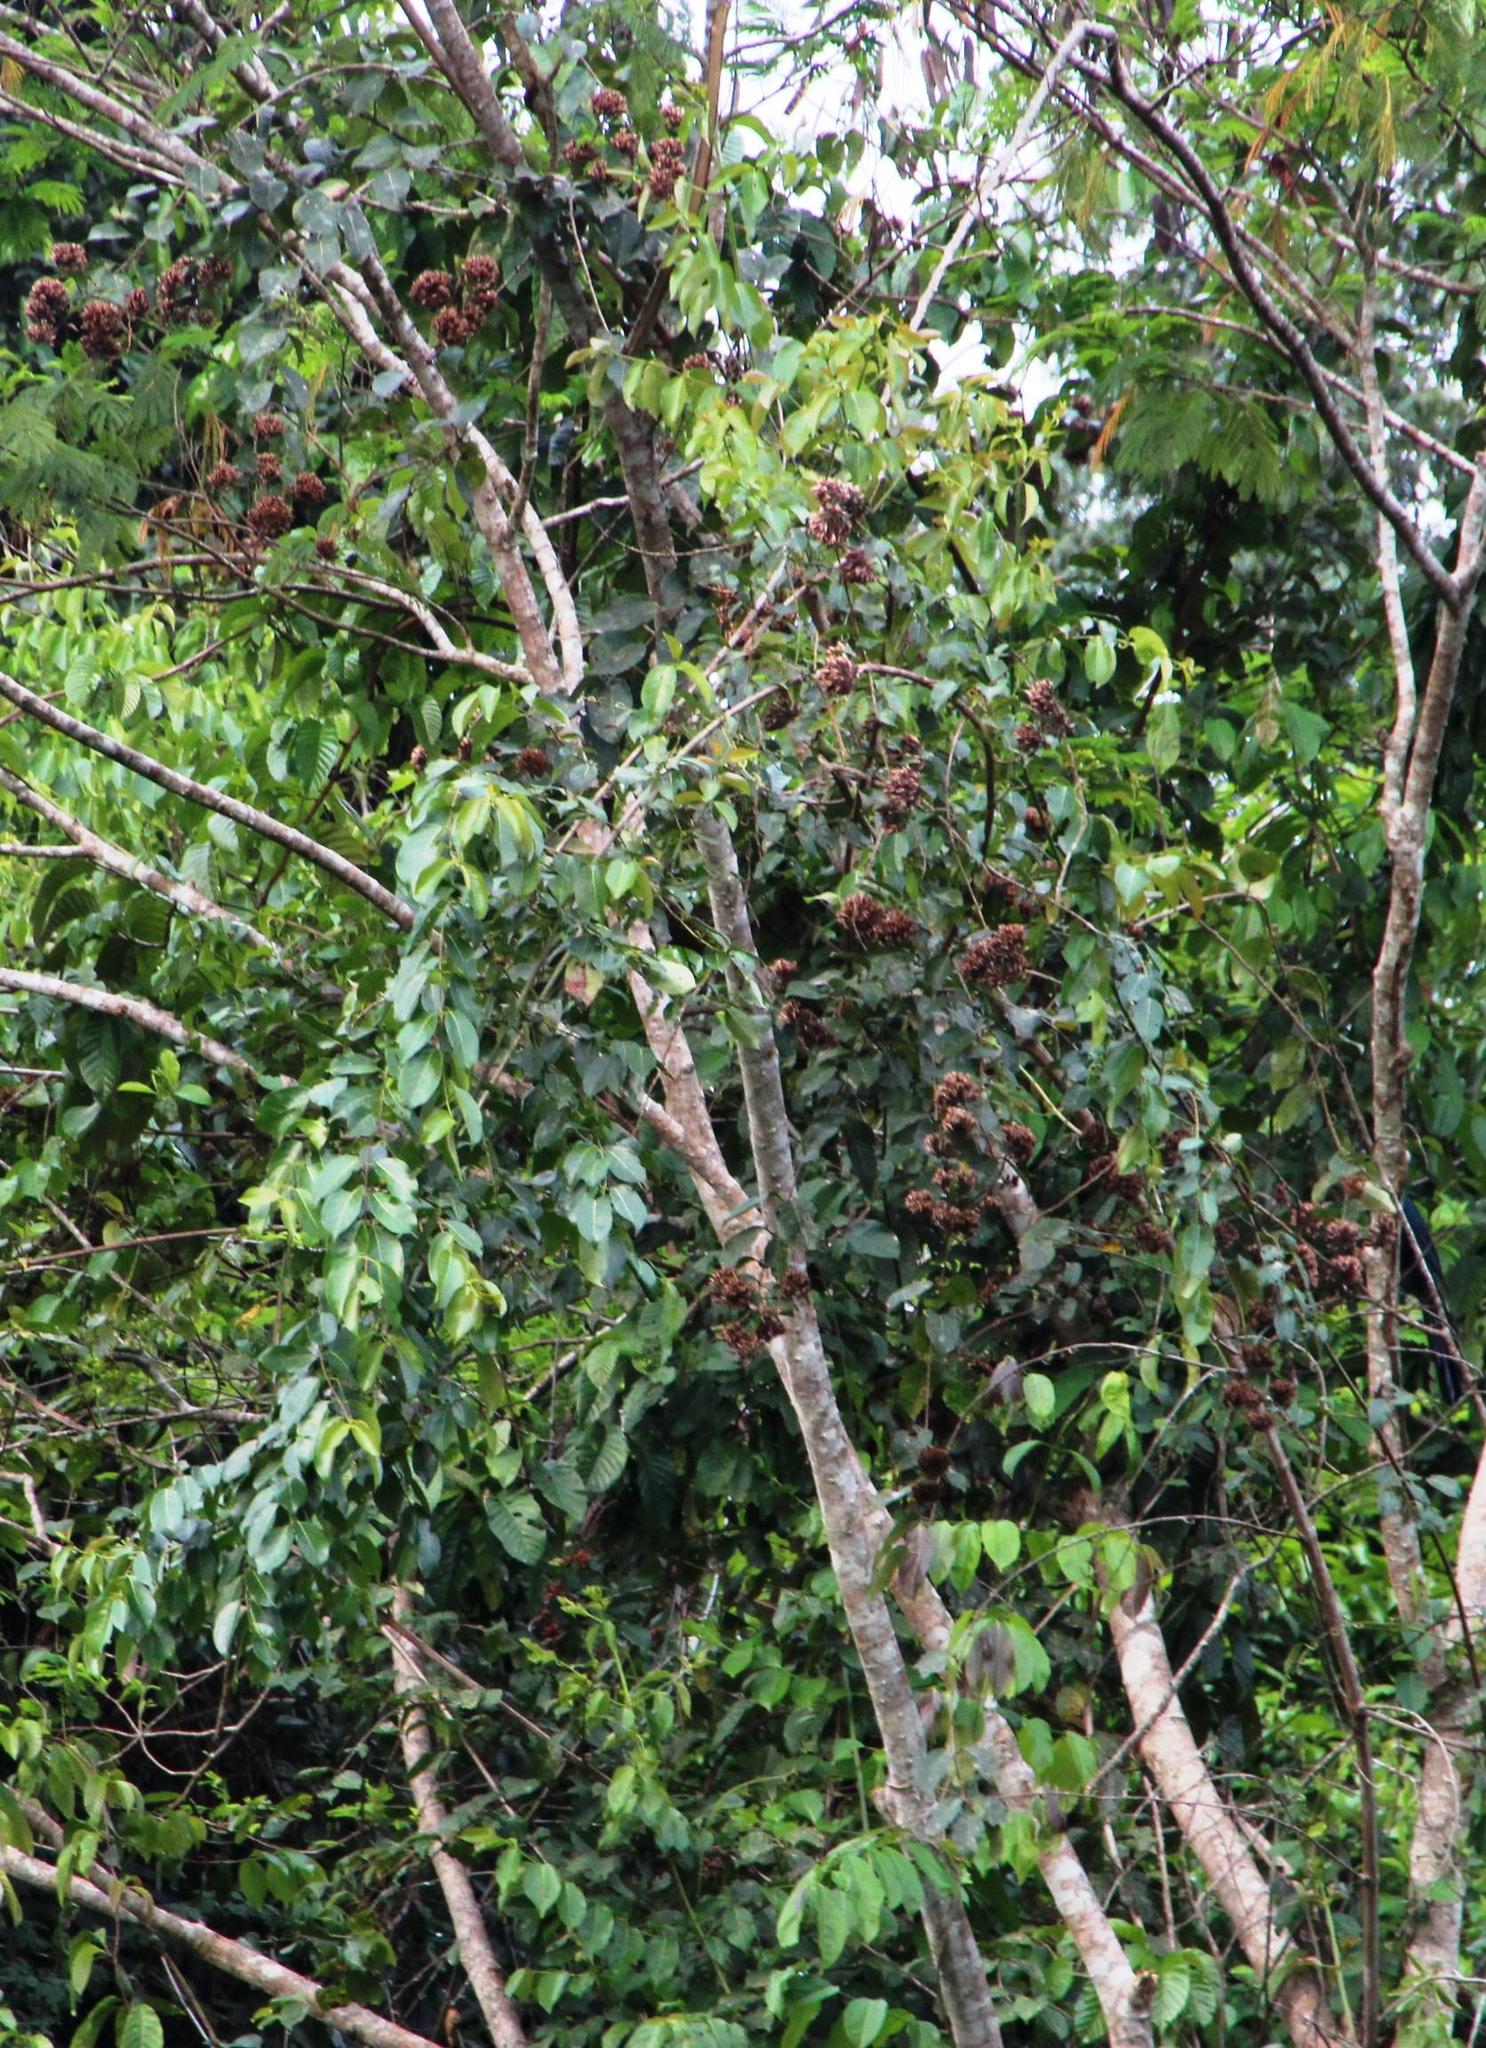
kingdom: Plantae
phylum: Tracheophyta
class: Magnoliopsida
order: Gentianales
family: Rubiaceae
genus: Uncaria
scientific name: Uncaria tomentosa
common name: Cat's-claw
